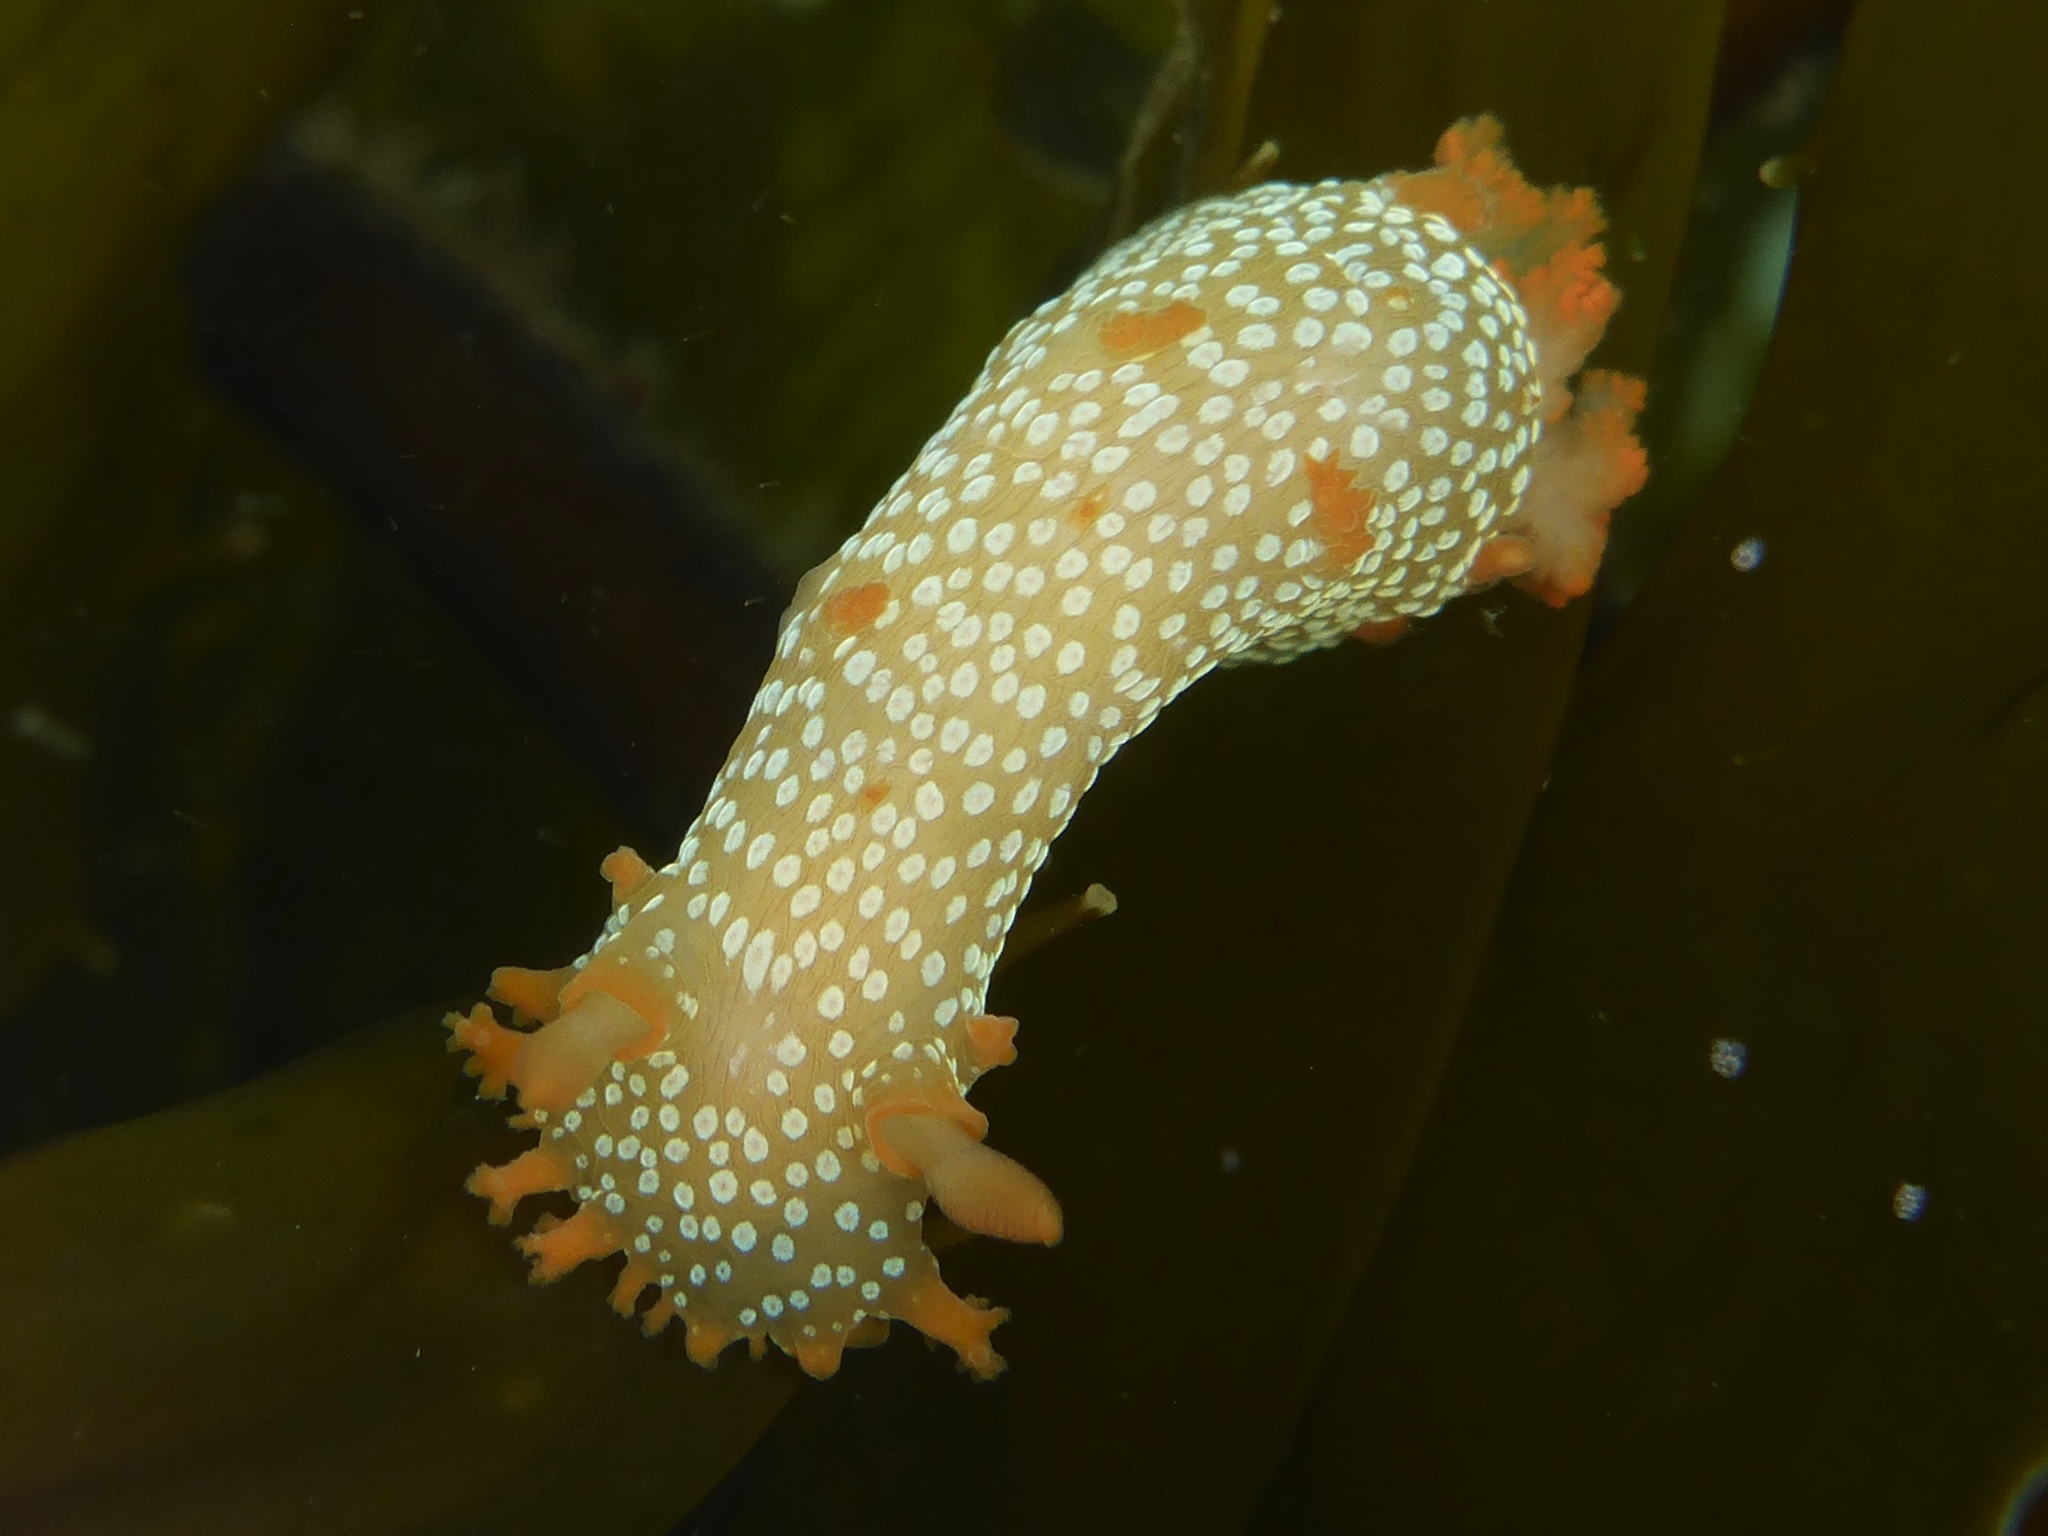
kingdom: Animalia
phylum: Mollusca
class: Gastropoda
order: Nudibranchia
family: Polyceridae
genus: Triopha
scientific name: Triopha maculata
